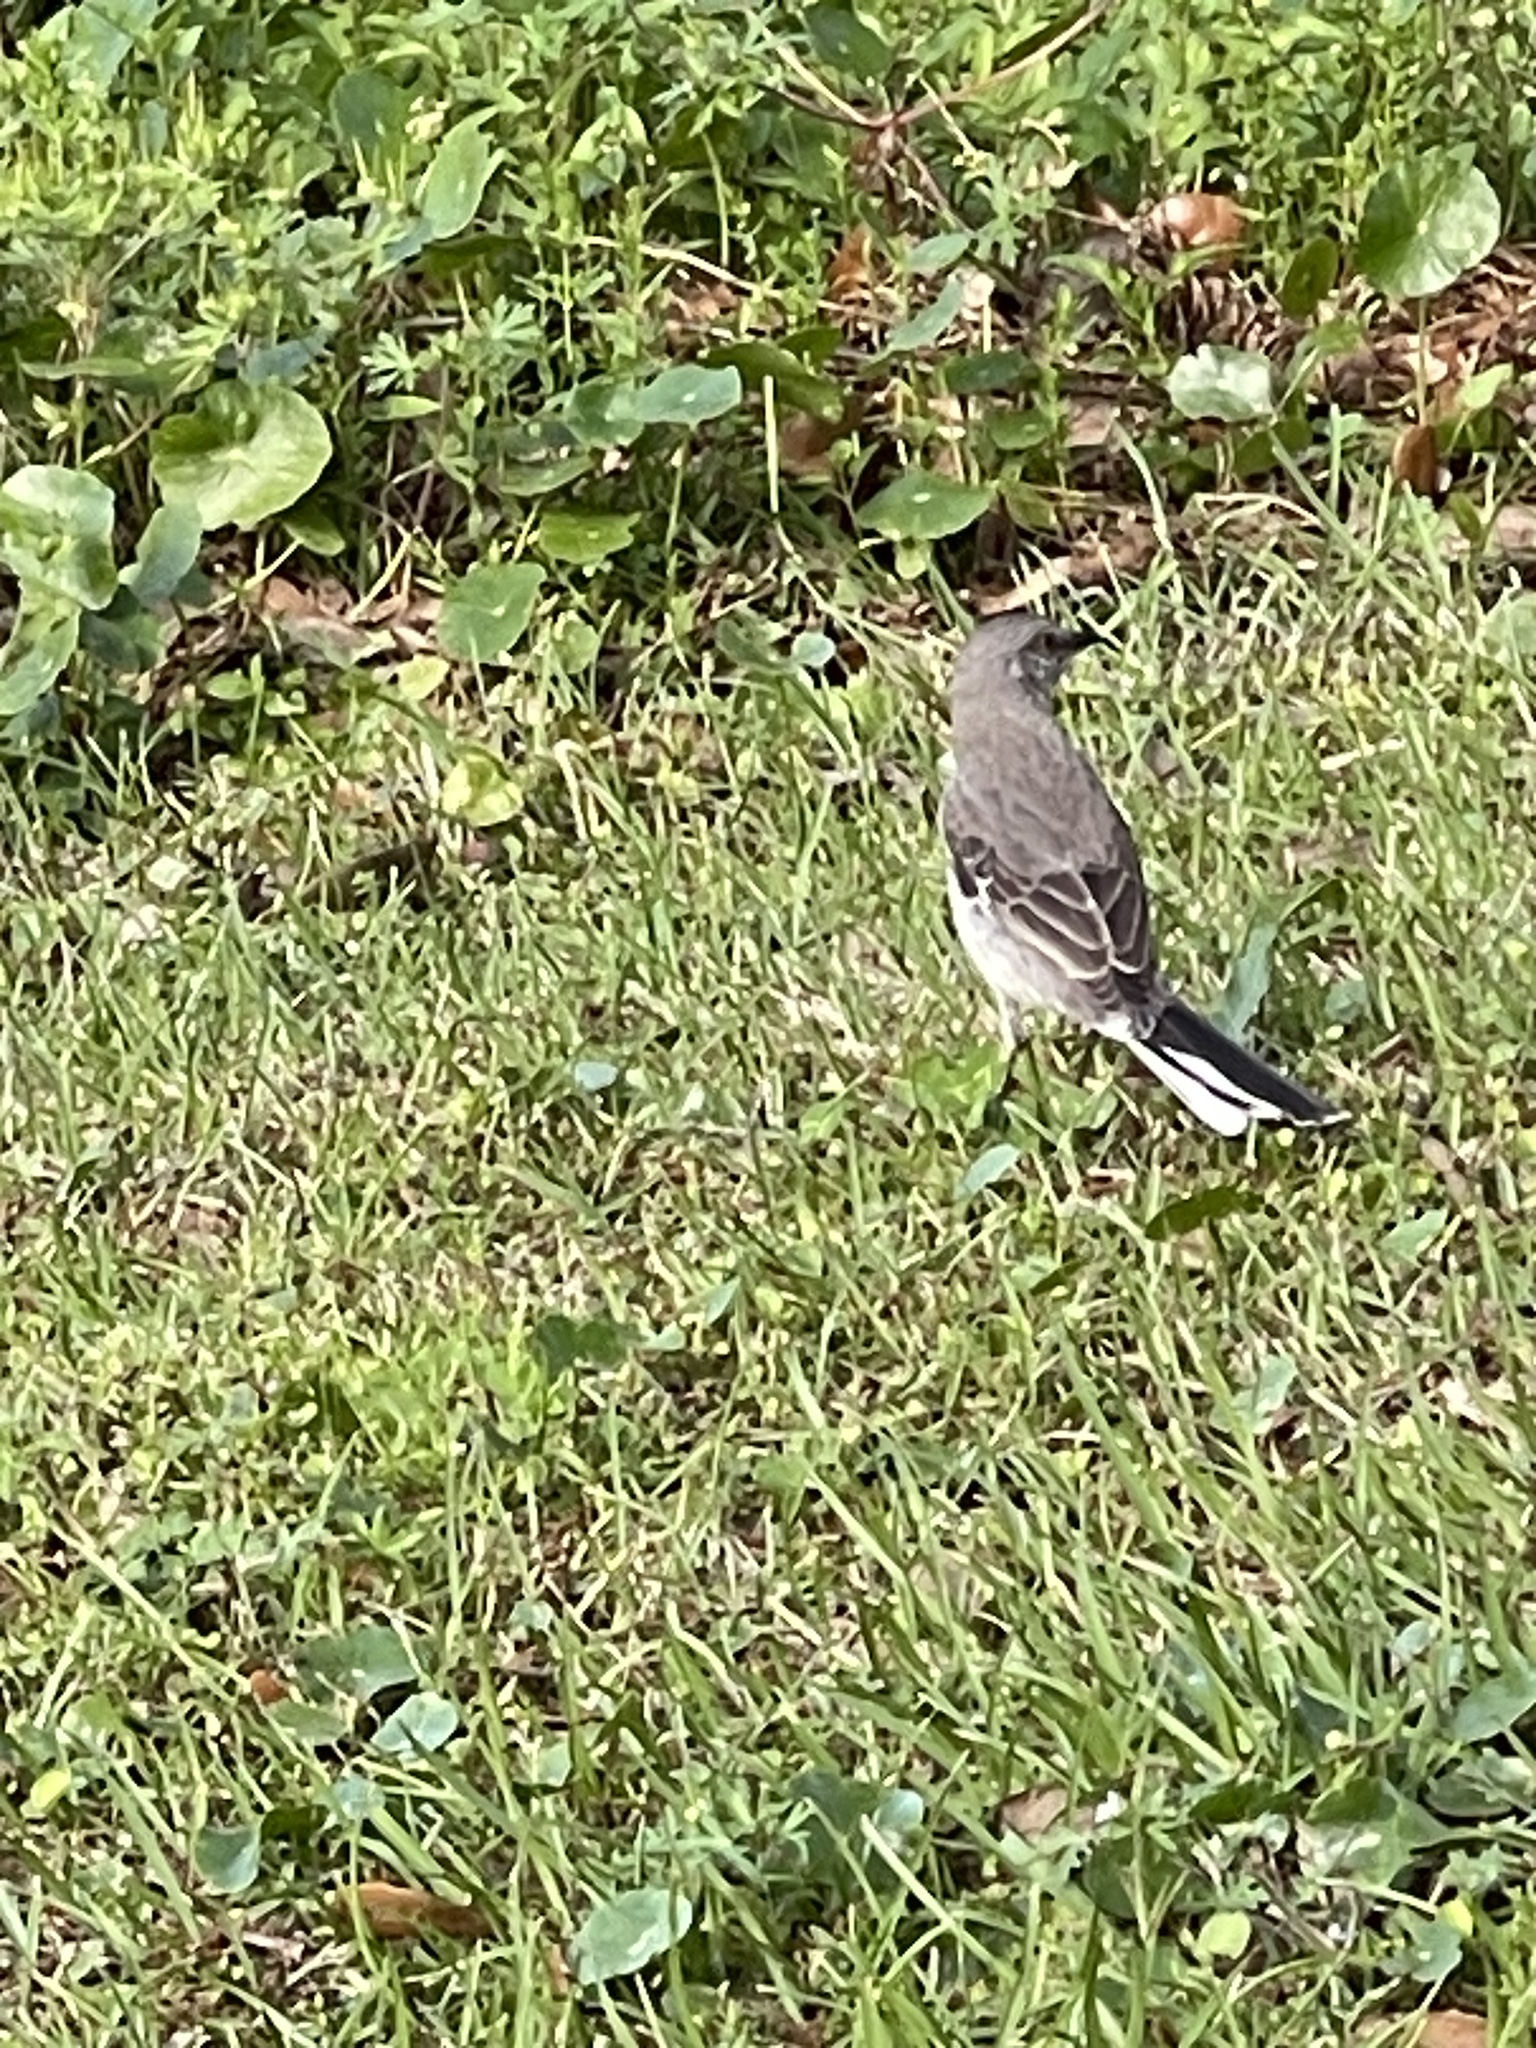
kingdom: Animalia
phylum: Chordata
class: Aves
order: Passeriformes
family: Mimidae
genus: Mimus
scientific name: Mimus polyglottos
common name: Northern mockingbird
